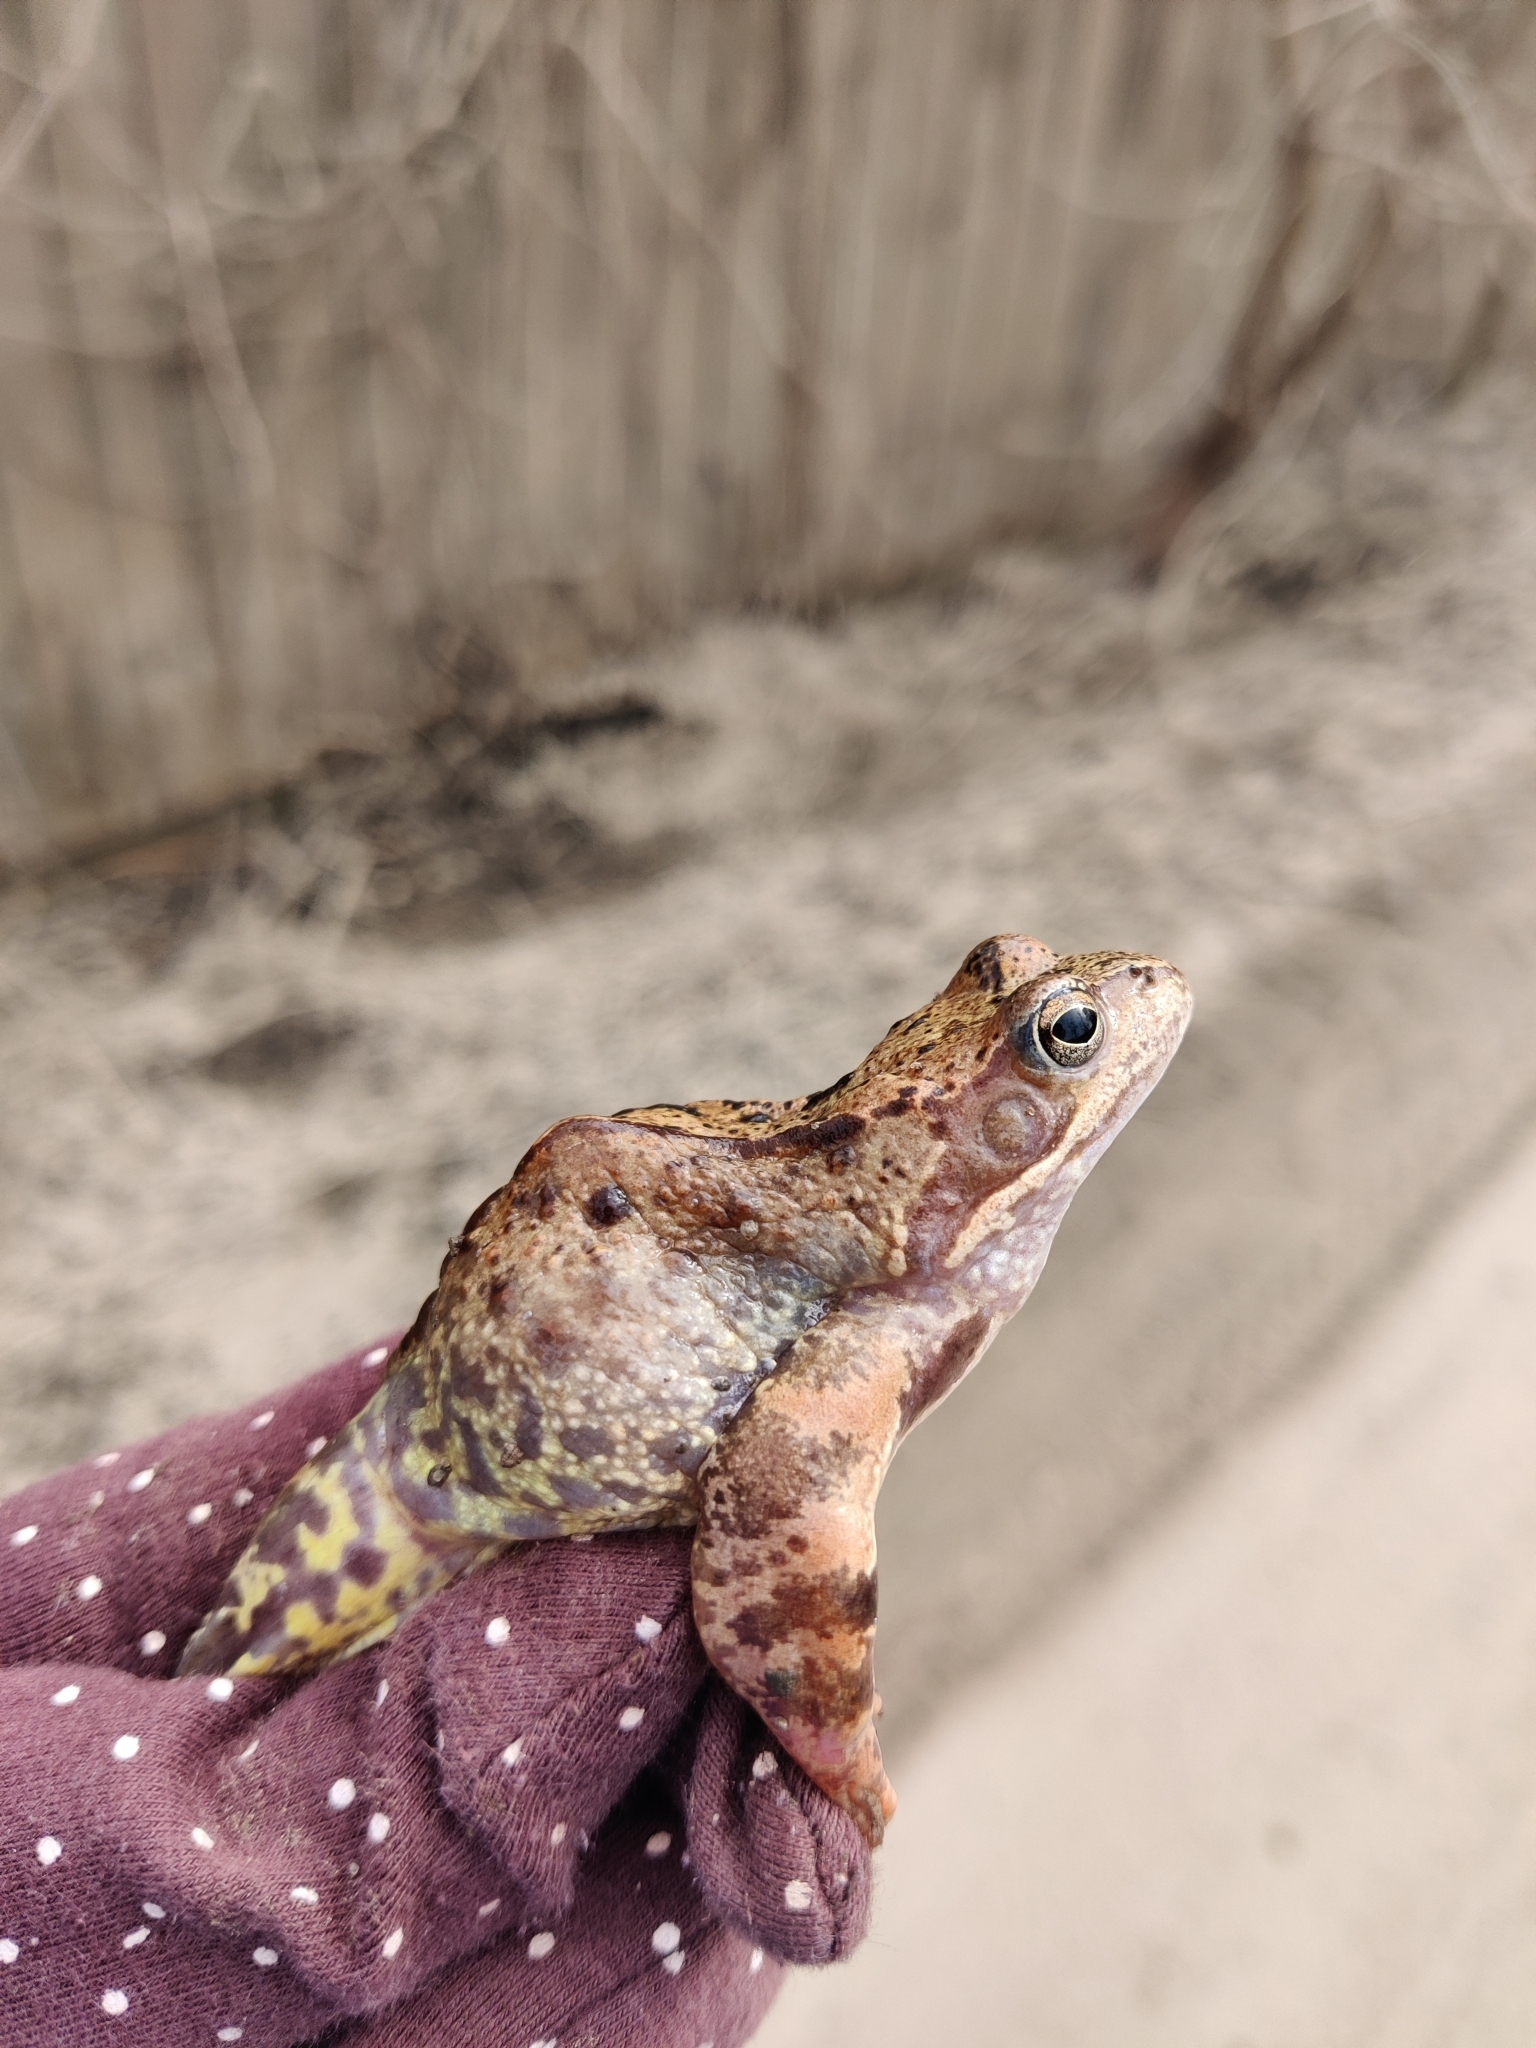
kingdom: Animalia
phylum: Chordata
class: Amphibia
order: Anura
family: Ranidae
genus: Rana
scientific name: Rana temporaria
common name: Common frog
